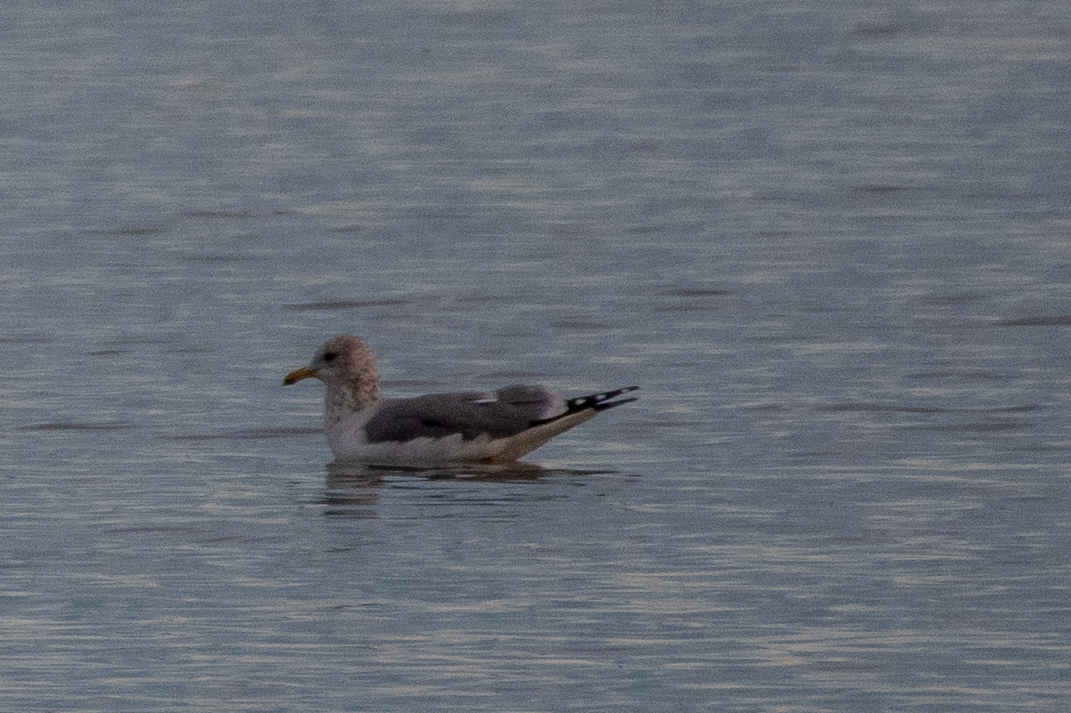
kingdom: Animalia
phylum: Chordata
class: Aves
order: Charadriiformes
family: Laridae
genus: Larus
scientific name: Larus californicus
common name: California gull
